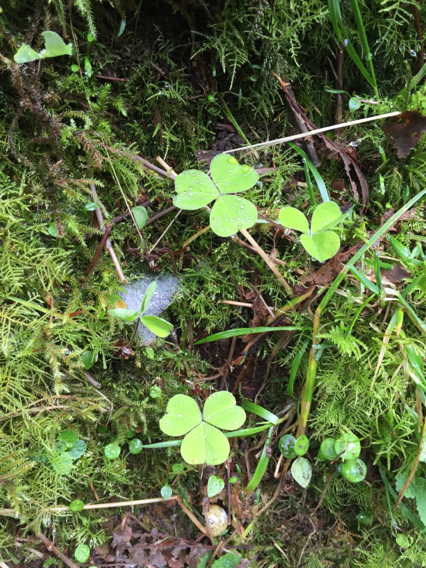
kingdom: Plantae
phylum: Tracheophyta
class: Magnoliopsida
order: Oxalidales
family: Oxalidaceae
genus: Oxalis
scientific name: Oxalis oregana
